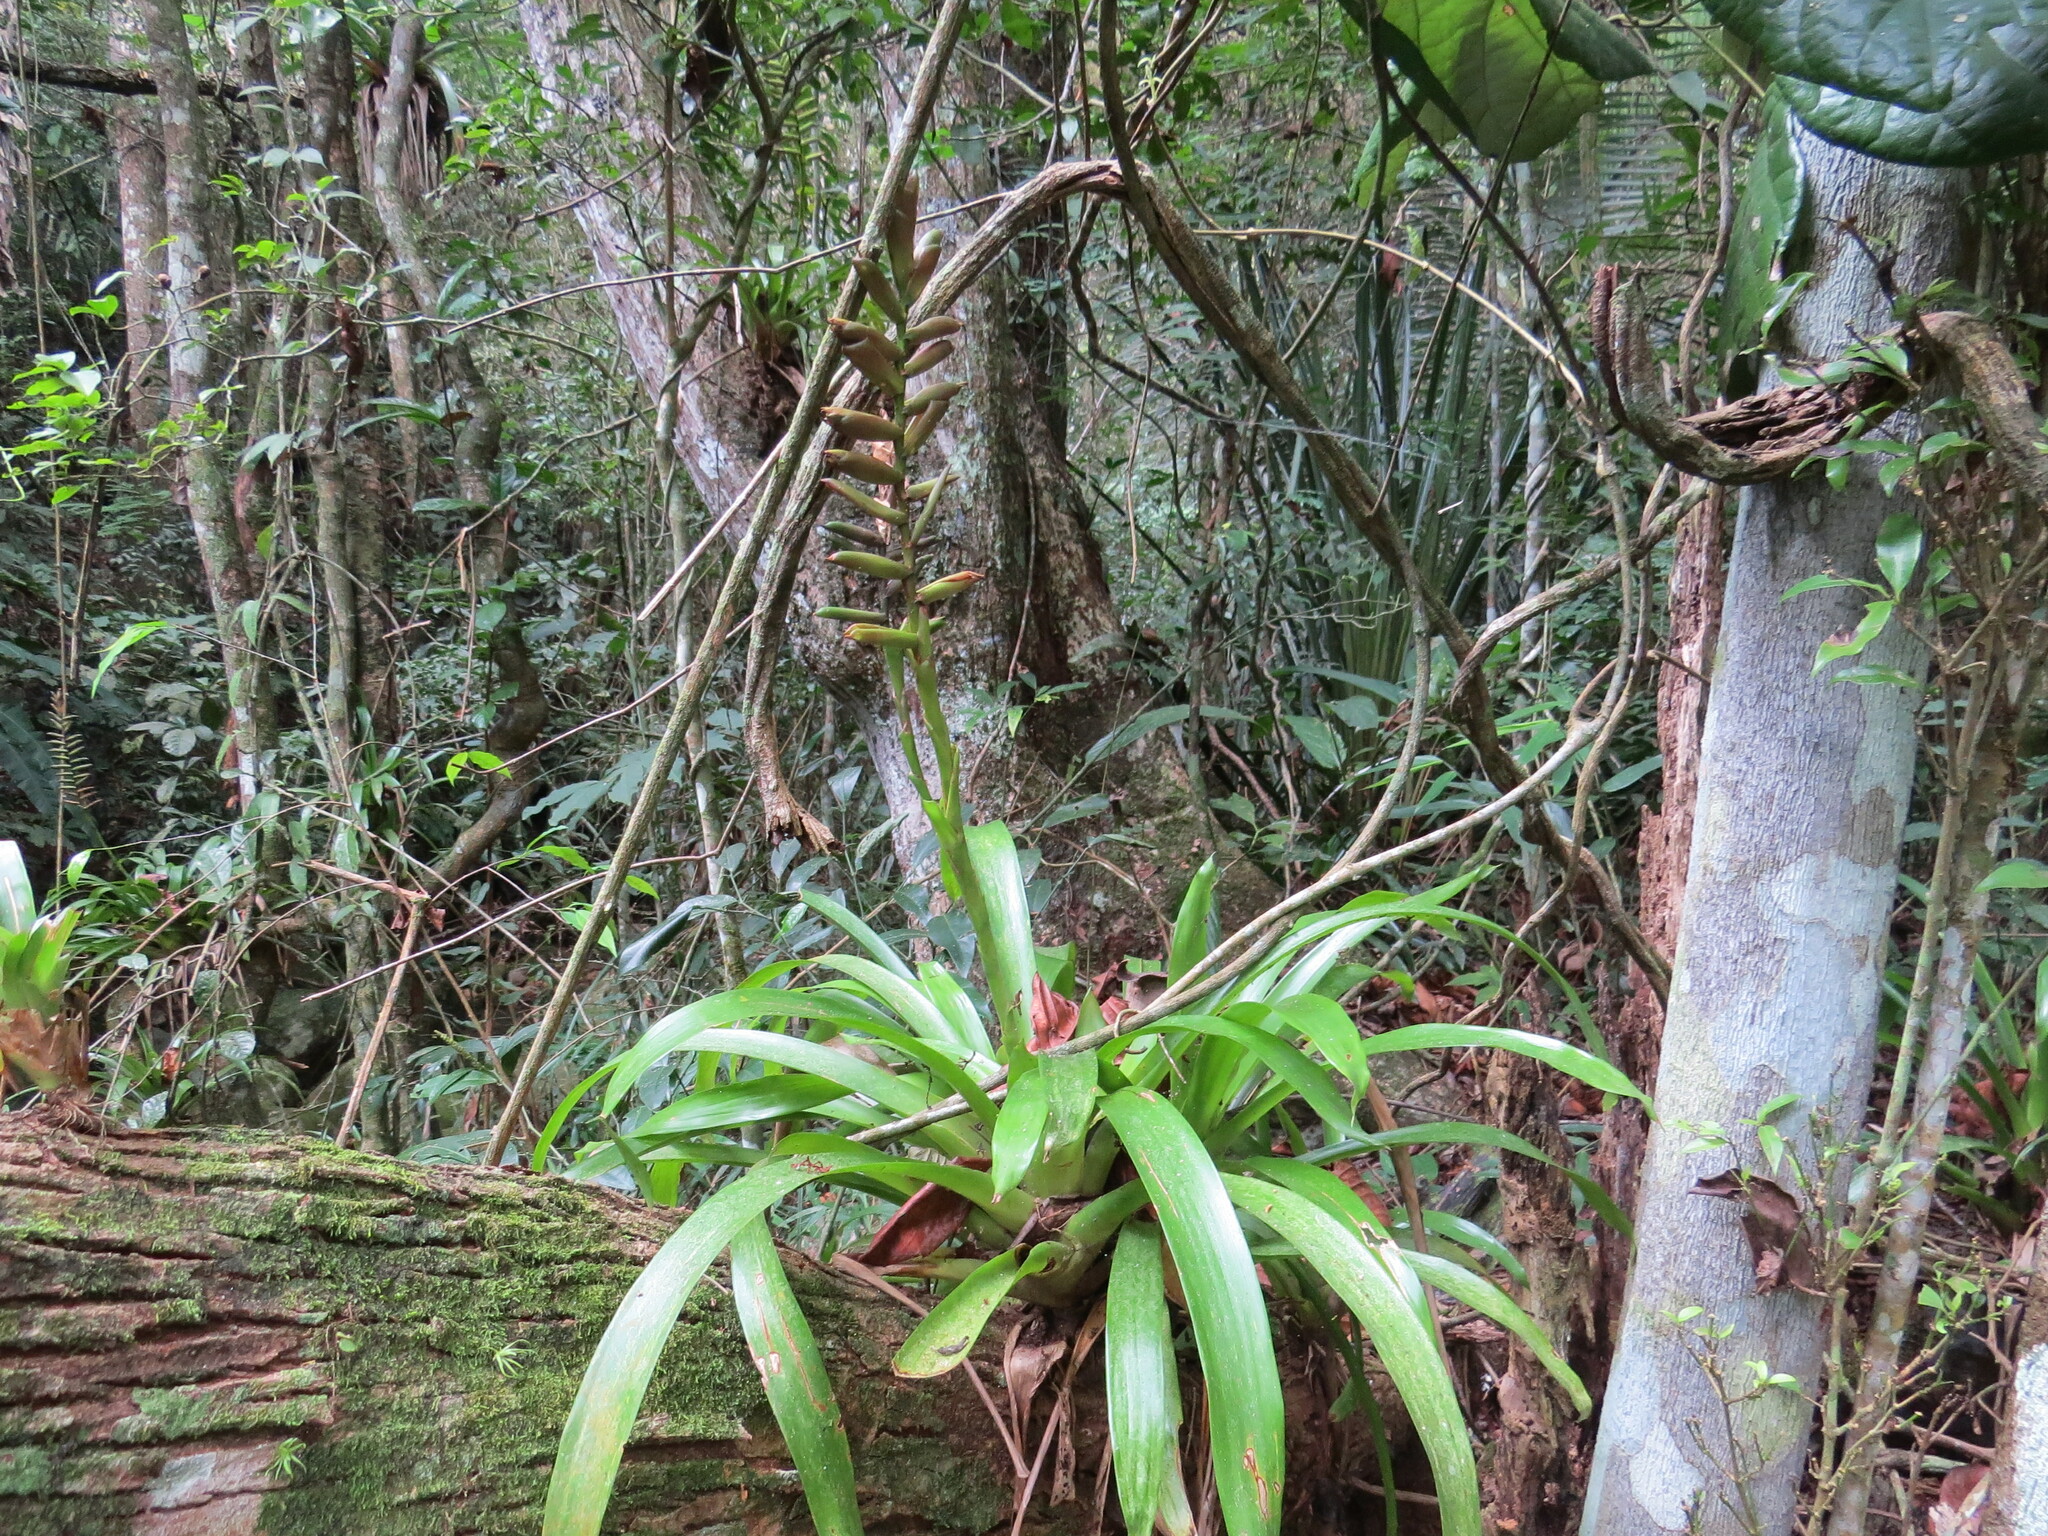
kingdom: Plantae
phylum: Tracheophyta
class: Liliopsida
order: Poales
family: Bromeliaceae
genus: Vriesea
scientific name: Vriesea ensiformis
